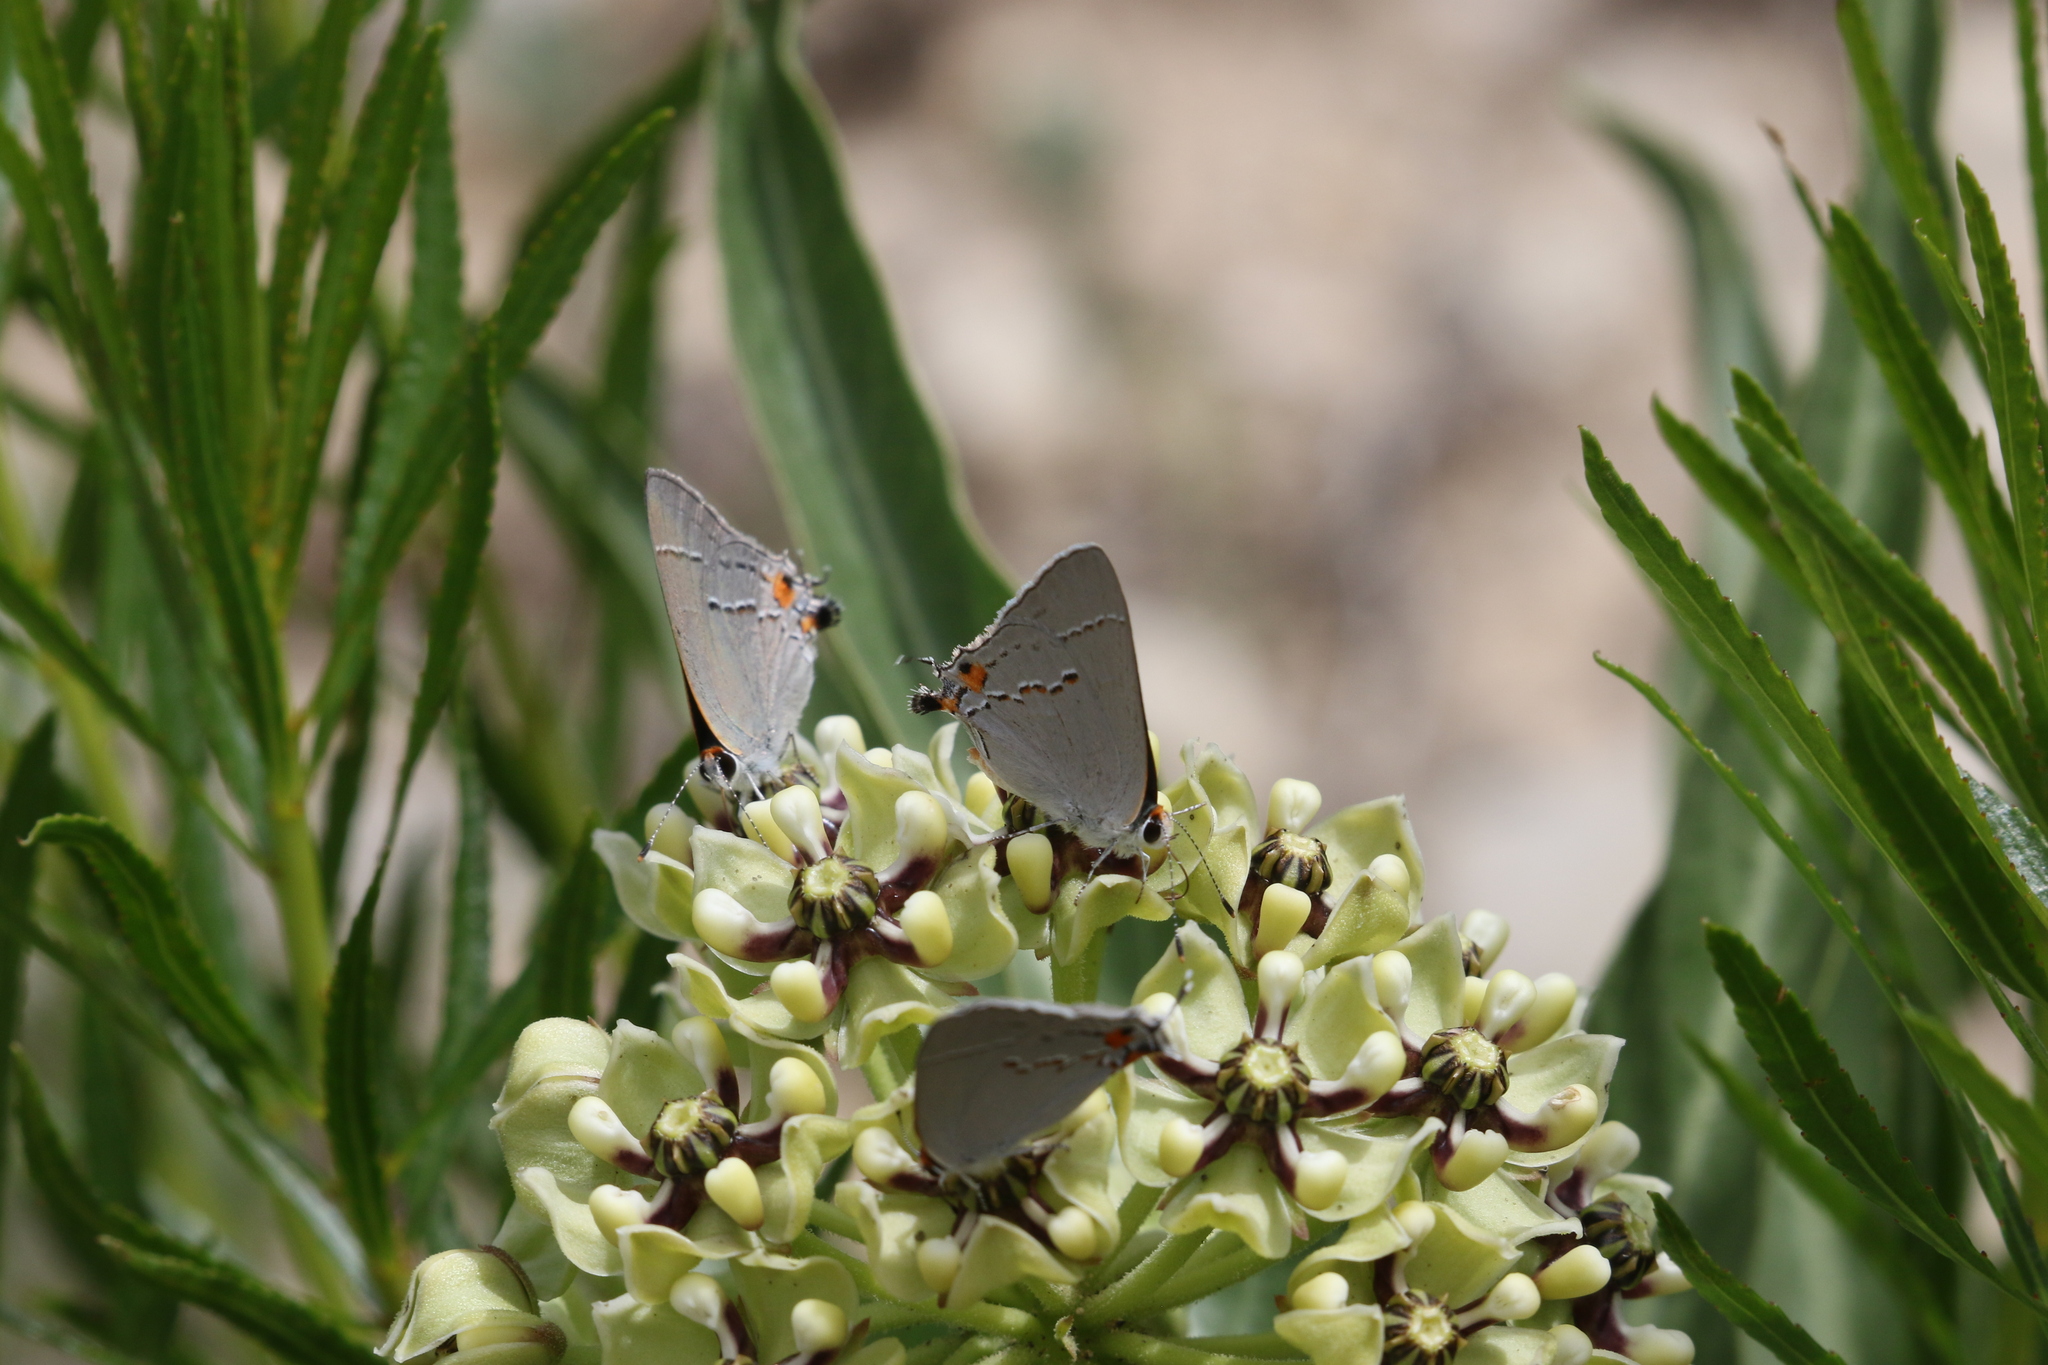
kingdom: Animalia
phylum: Arthropoda
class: Insecta
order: Lepidoptera
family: Lycaenidae
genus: Strymon
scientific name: Strymon melinus
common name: Gray hairstreak
